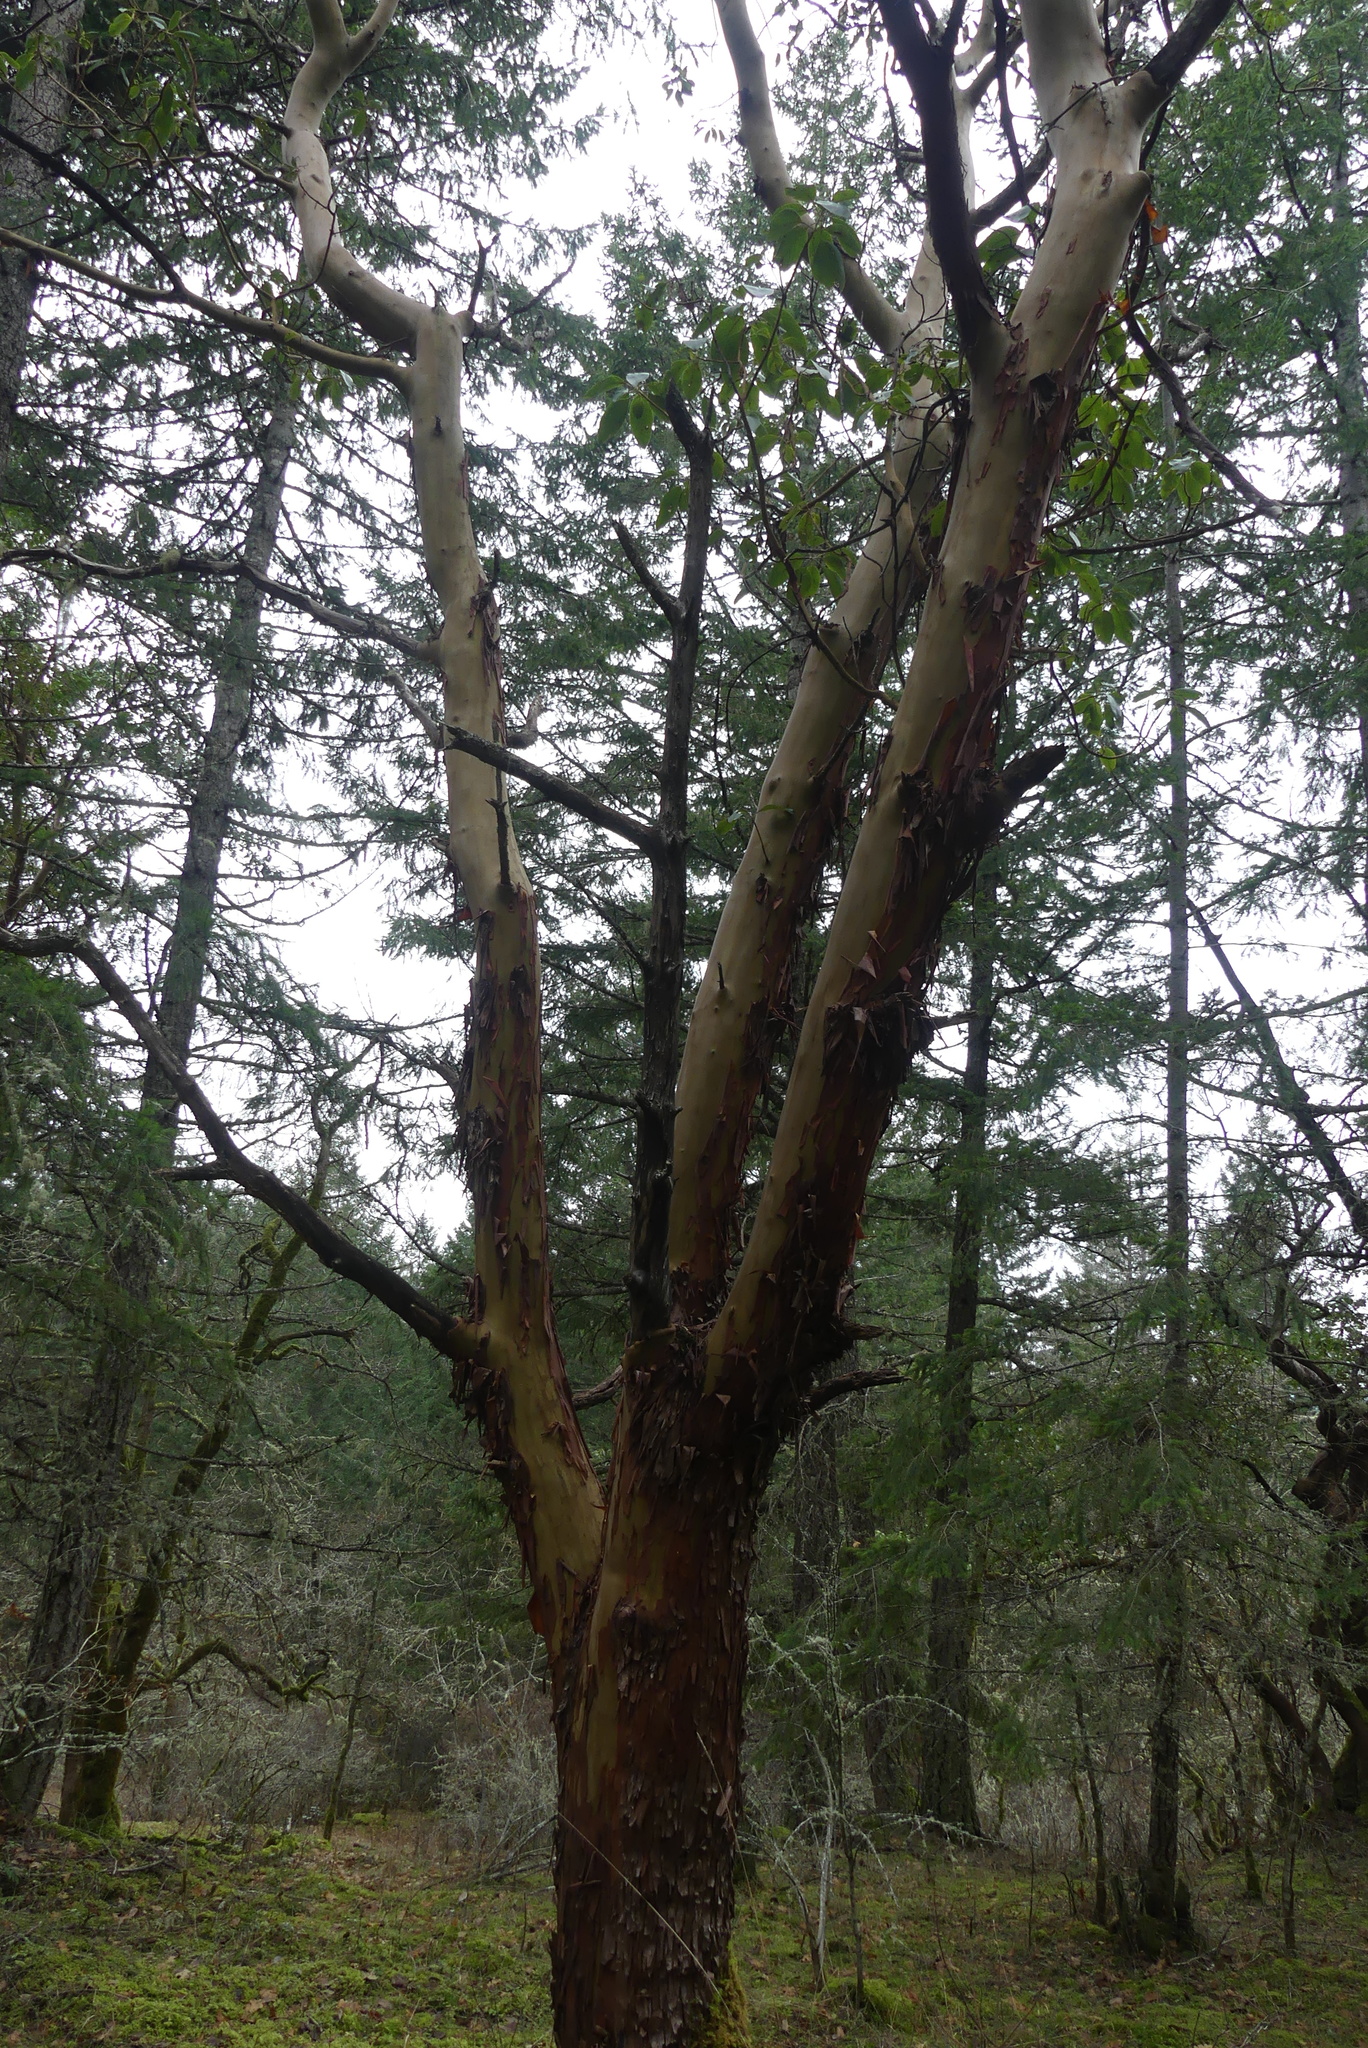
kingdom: Plantae
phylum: Tracheophyta
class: Magnoliopsida
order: Ericales
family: Ericaceae
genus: Arbutus
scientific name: Arbutus menziesii
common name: Pacific madrone
